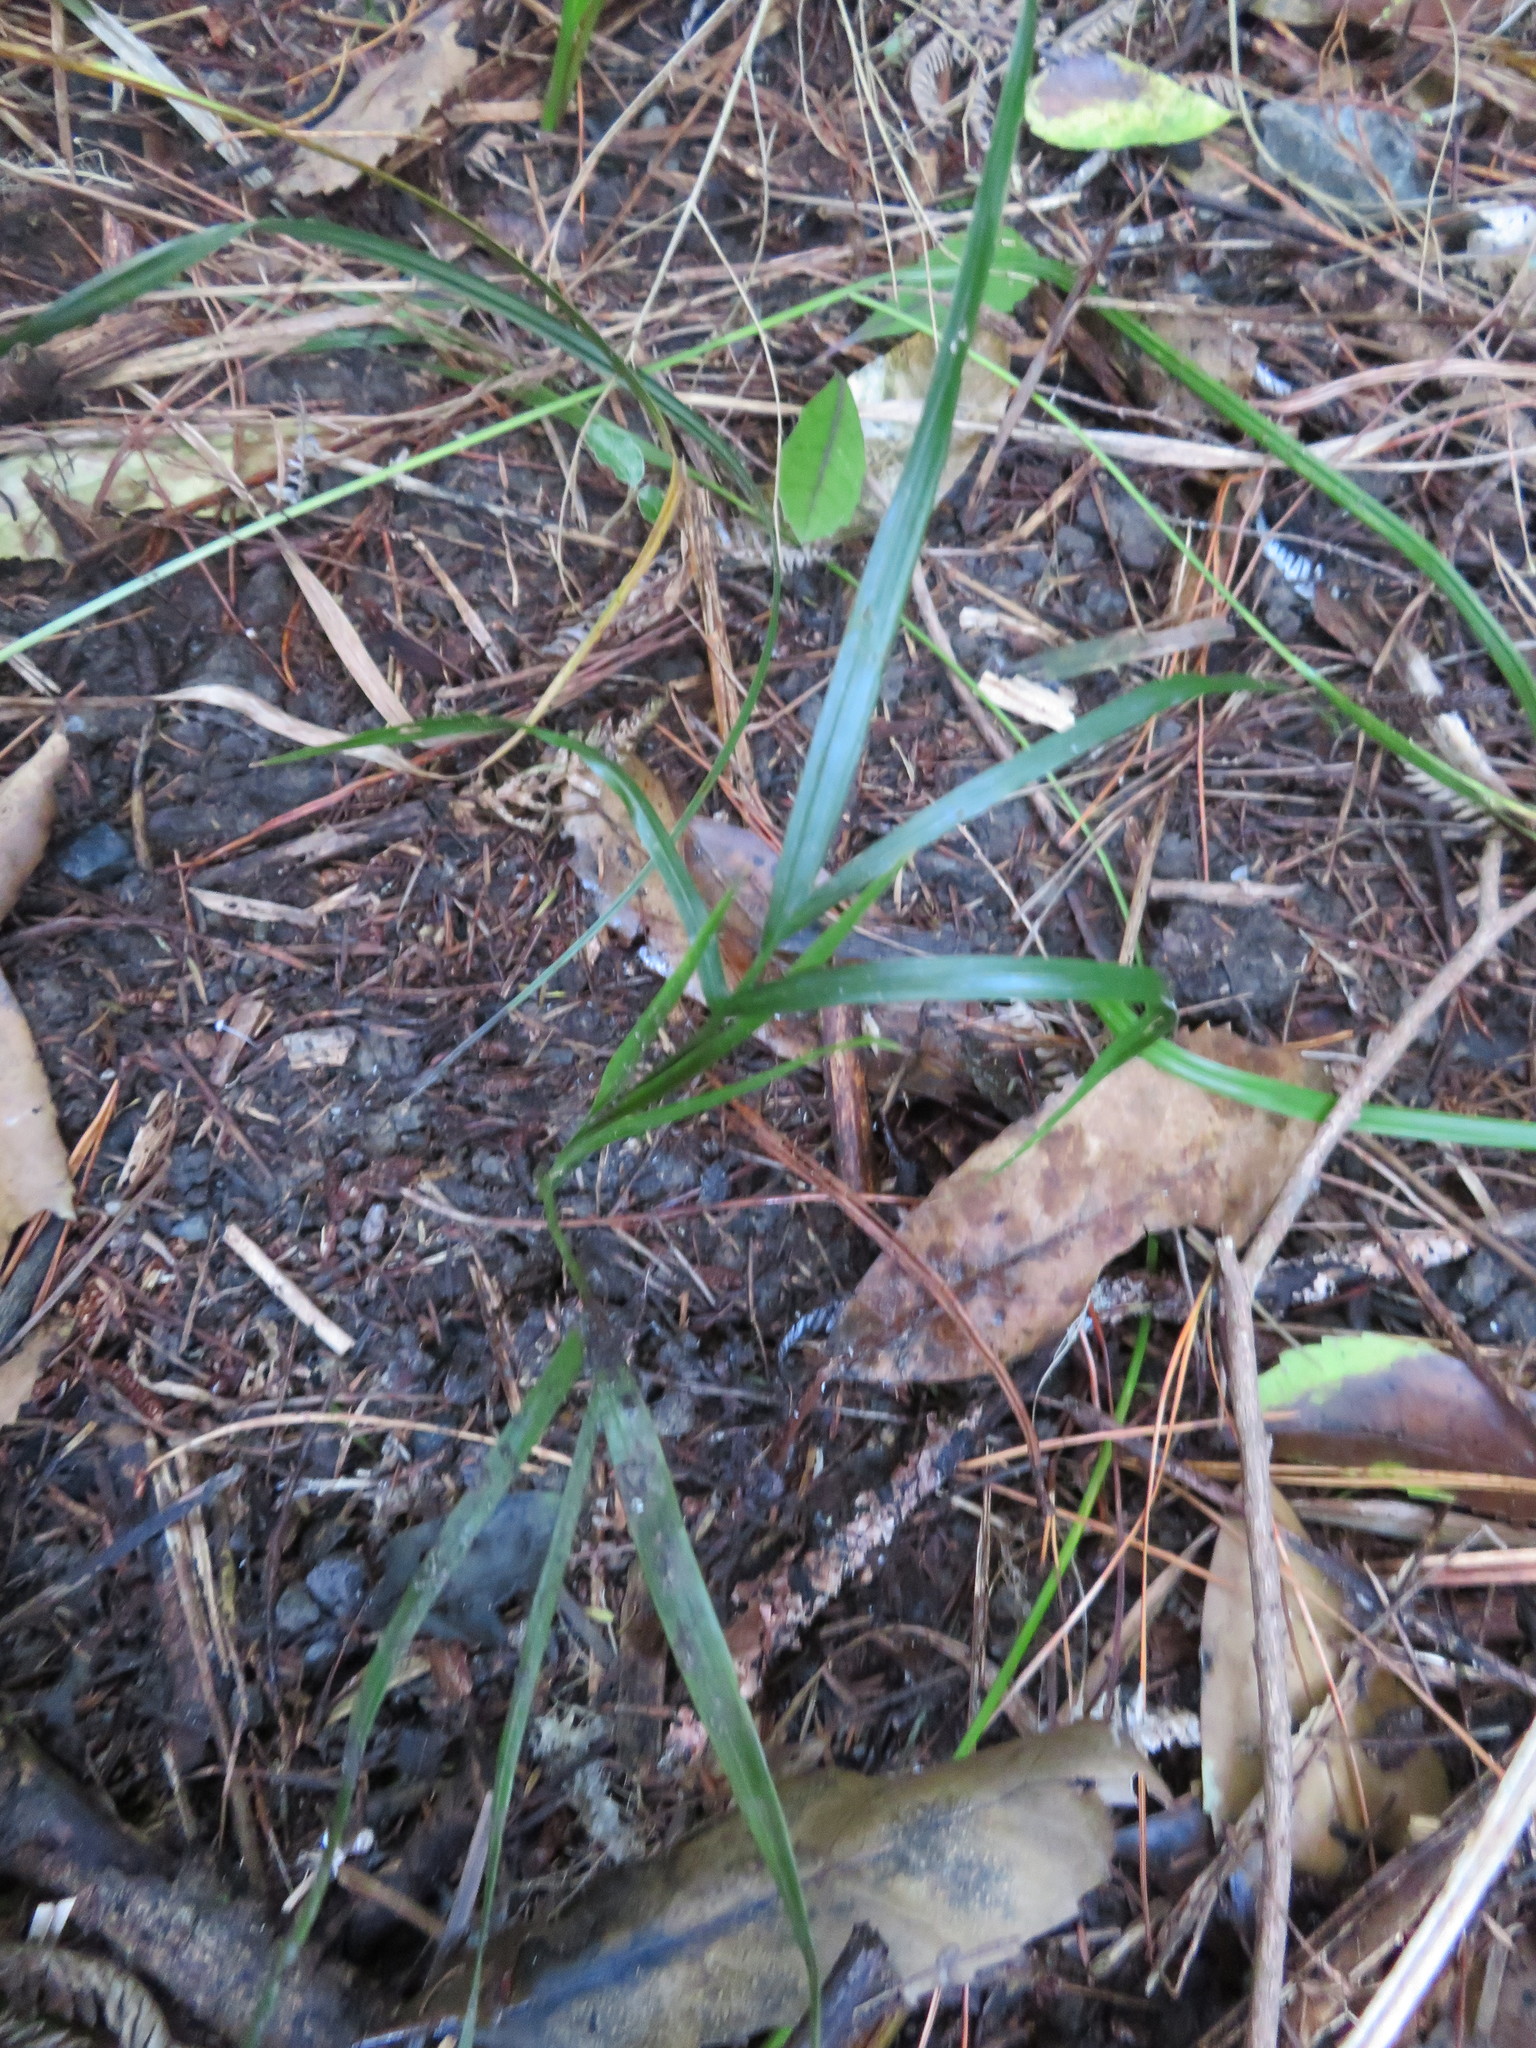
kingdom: Plantae
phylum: Tracheophyta
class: Liliopsida
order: Arecales
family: Arecaceae
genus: Rhopalostylis
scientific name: Rhopalostylis sapida
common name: Feather-duster palm
